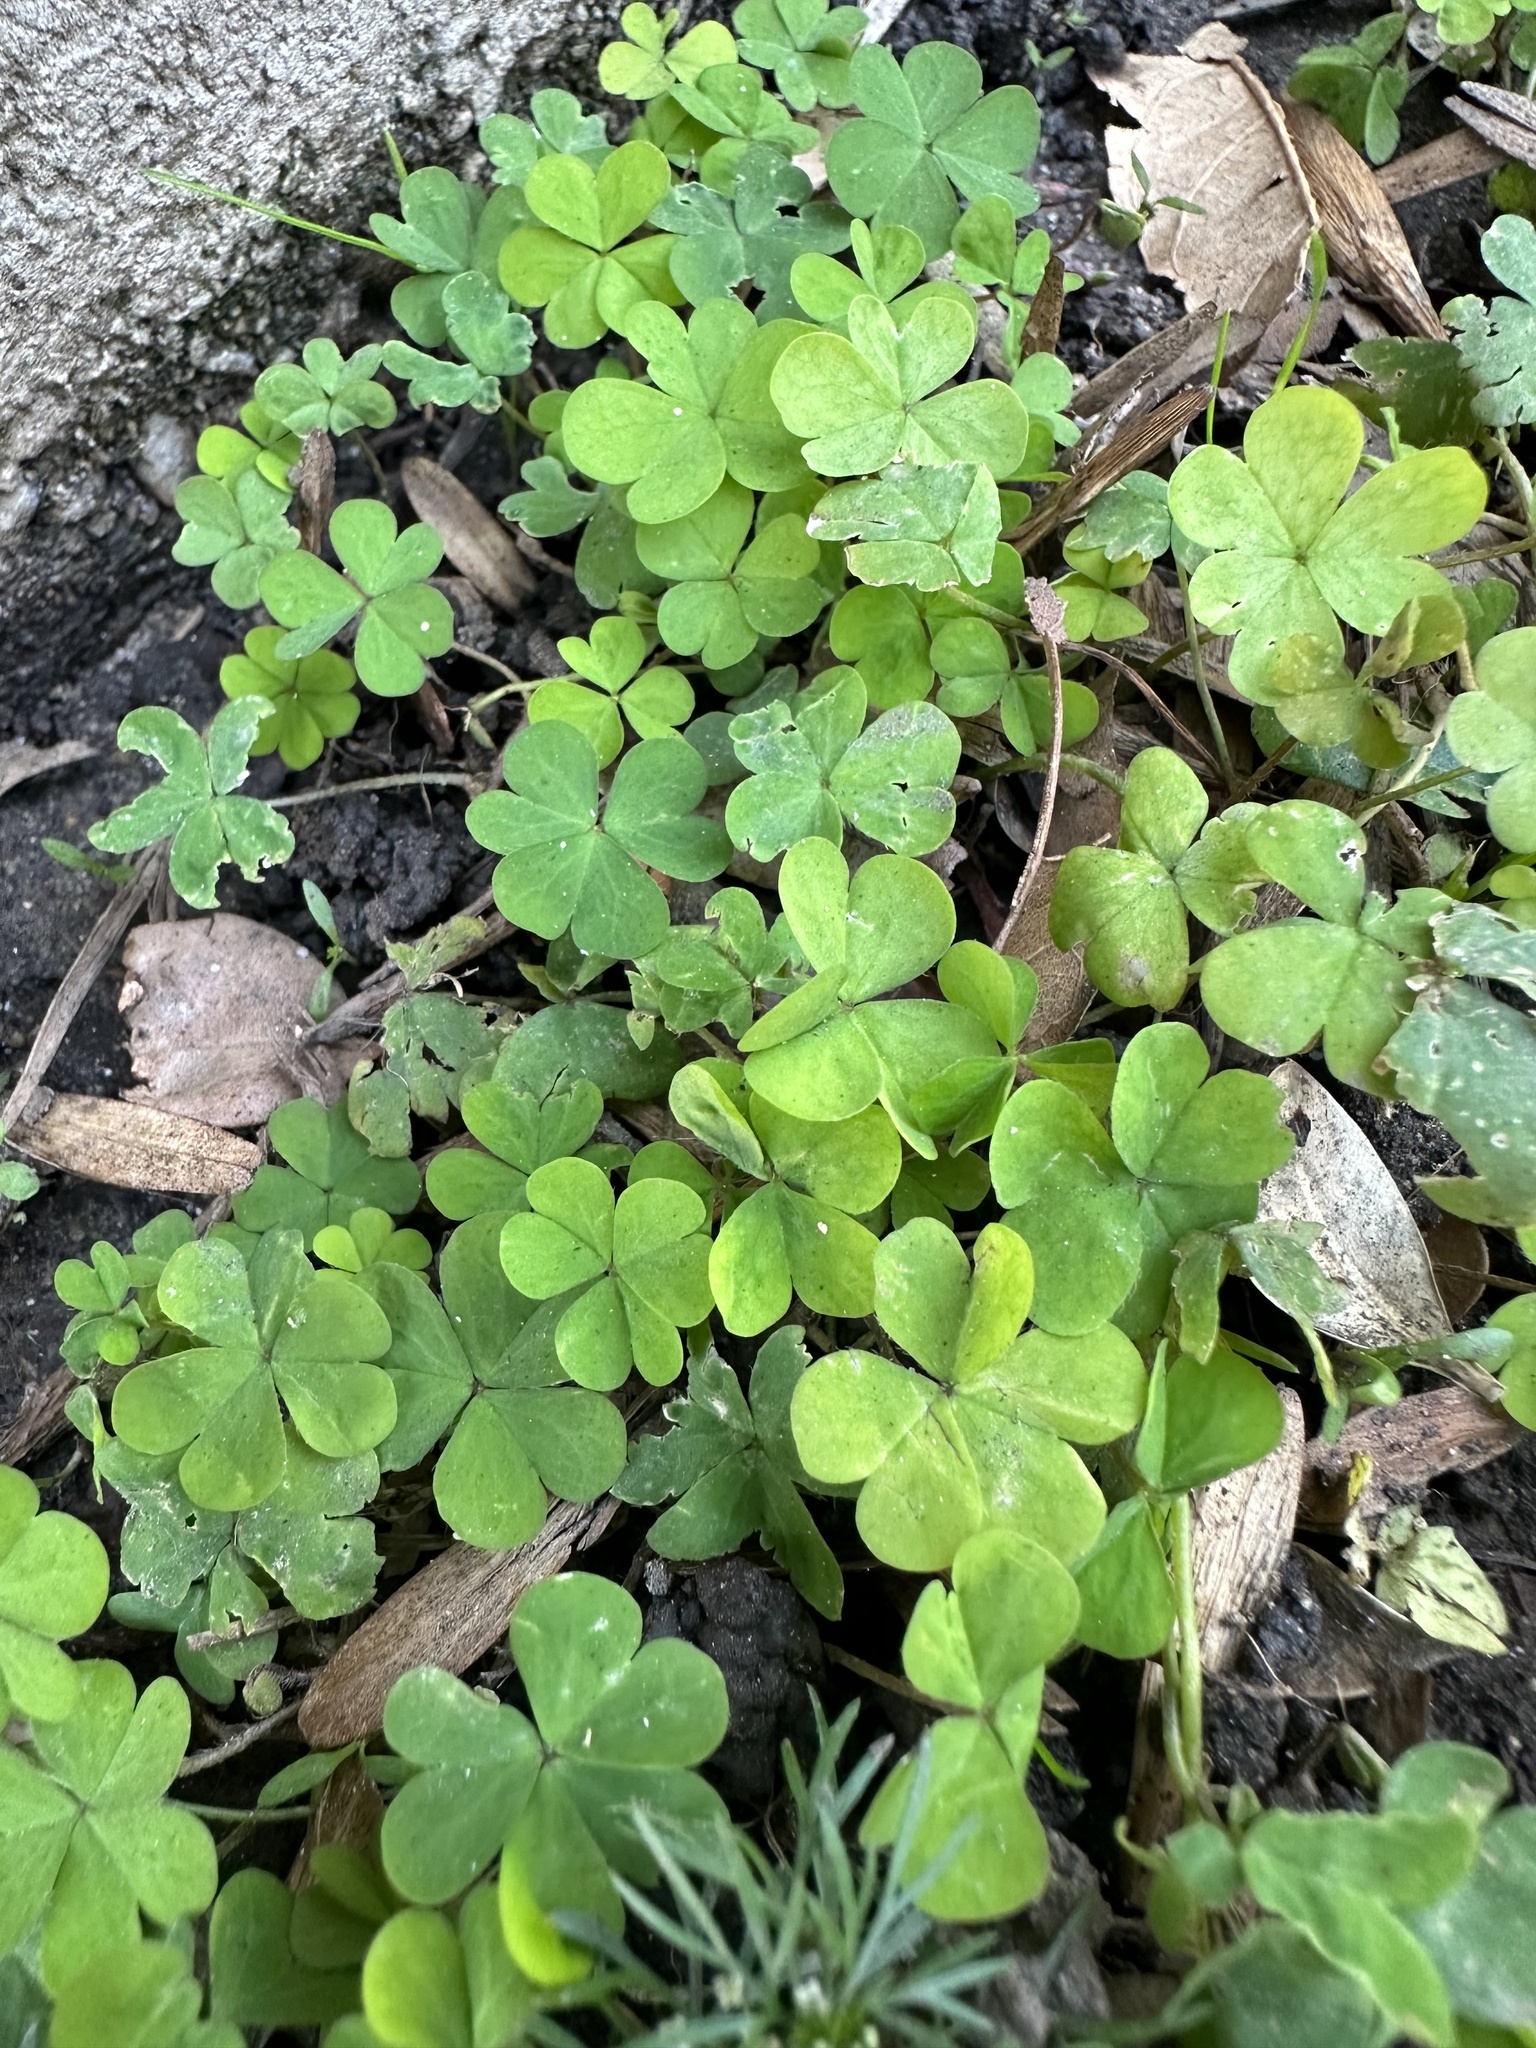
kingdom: Plantae
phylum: Tracheophyta
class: Magnoliopsida
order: Oxalidales
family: Oxalidaceae
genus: Oxalis
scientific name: Oxalis corniculata
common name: Procumbent yellow-sorrel
